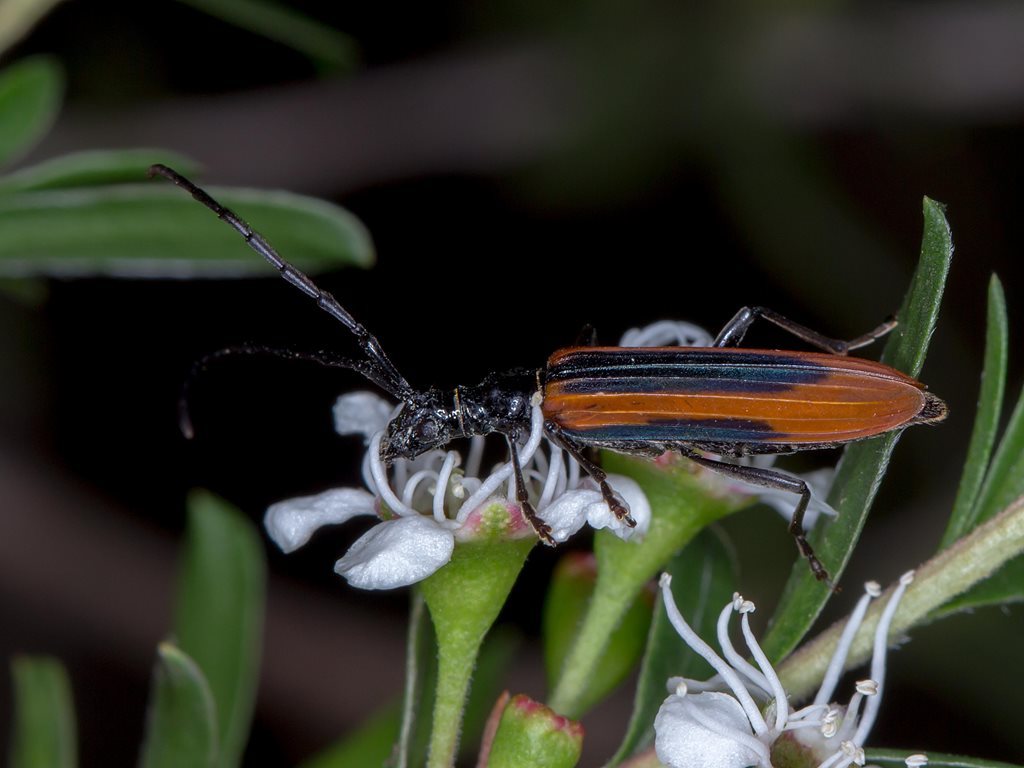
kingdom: Animalia
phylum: Arthropoda
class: Insecta
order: Coleoptera
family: Cerambycidae
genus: Stenoderus
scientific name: Stenoderus suturalis
